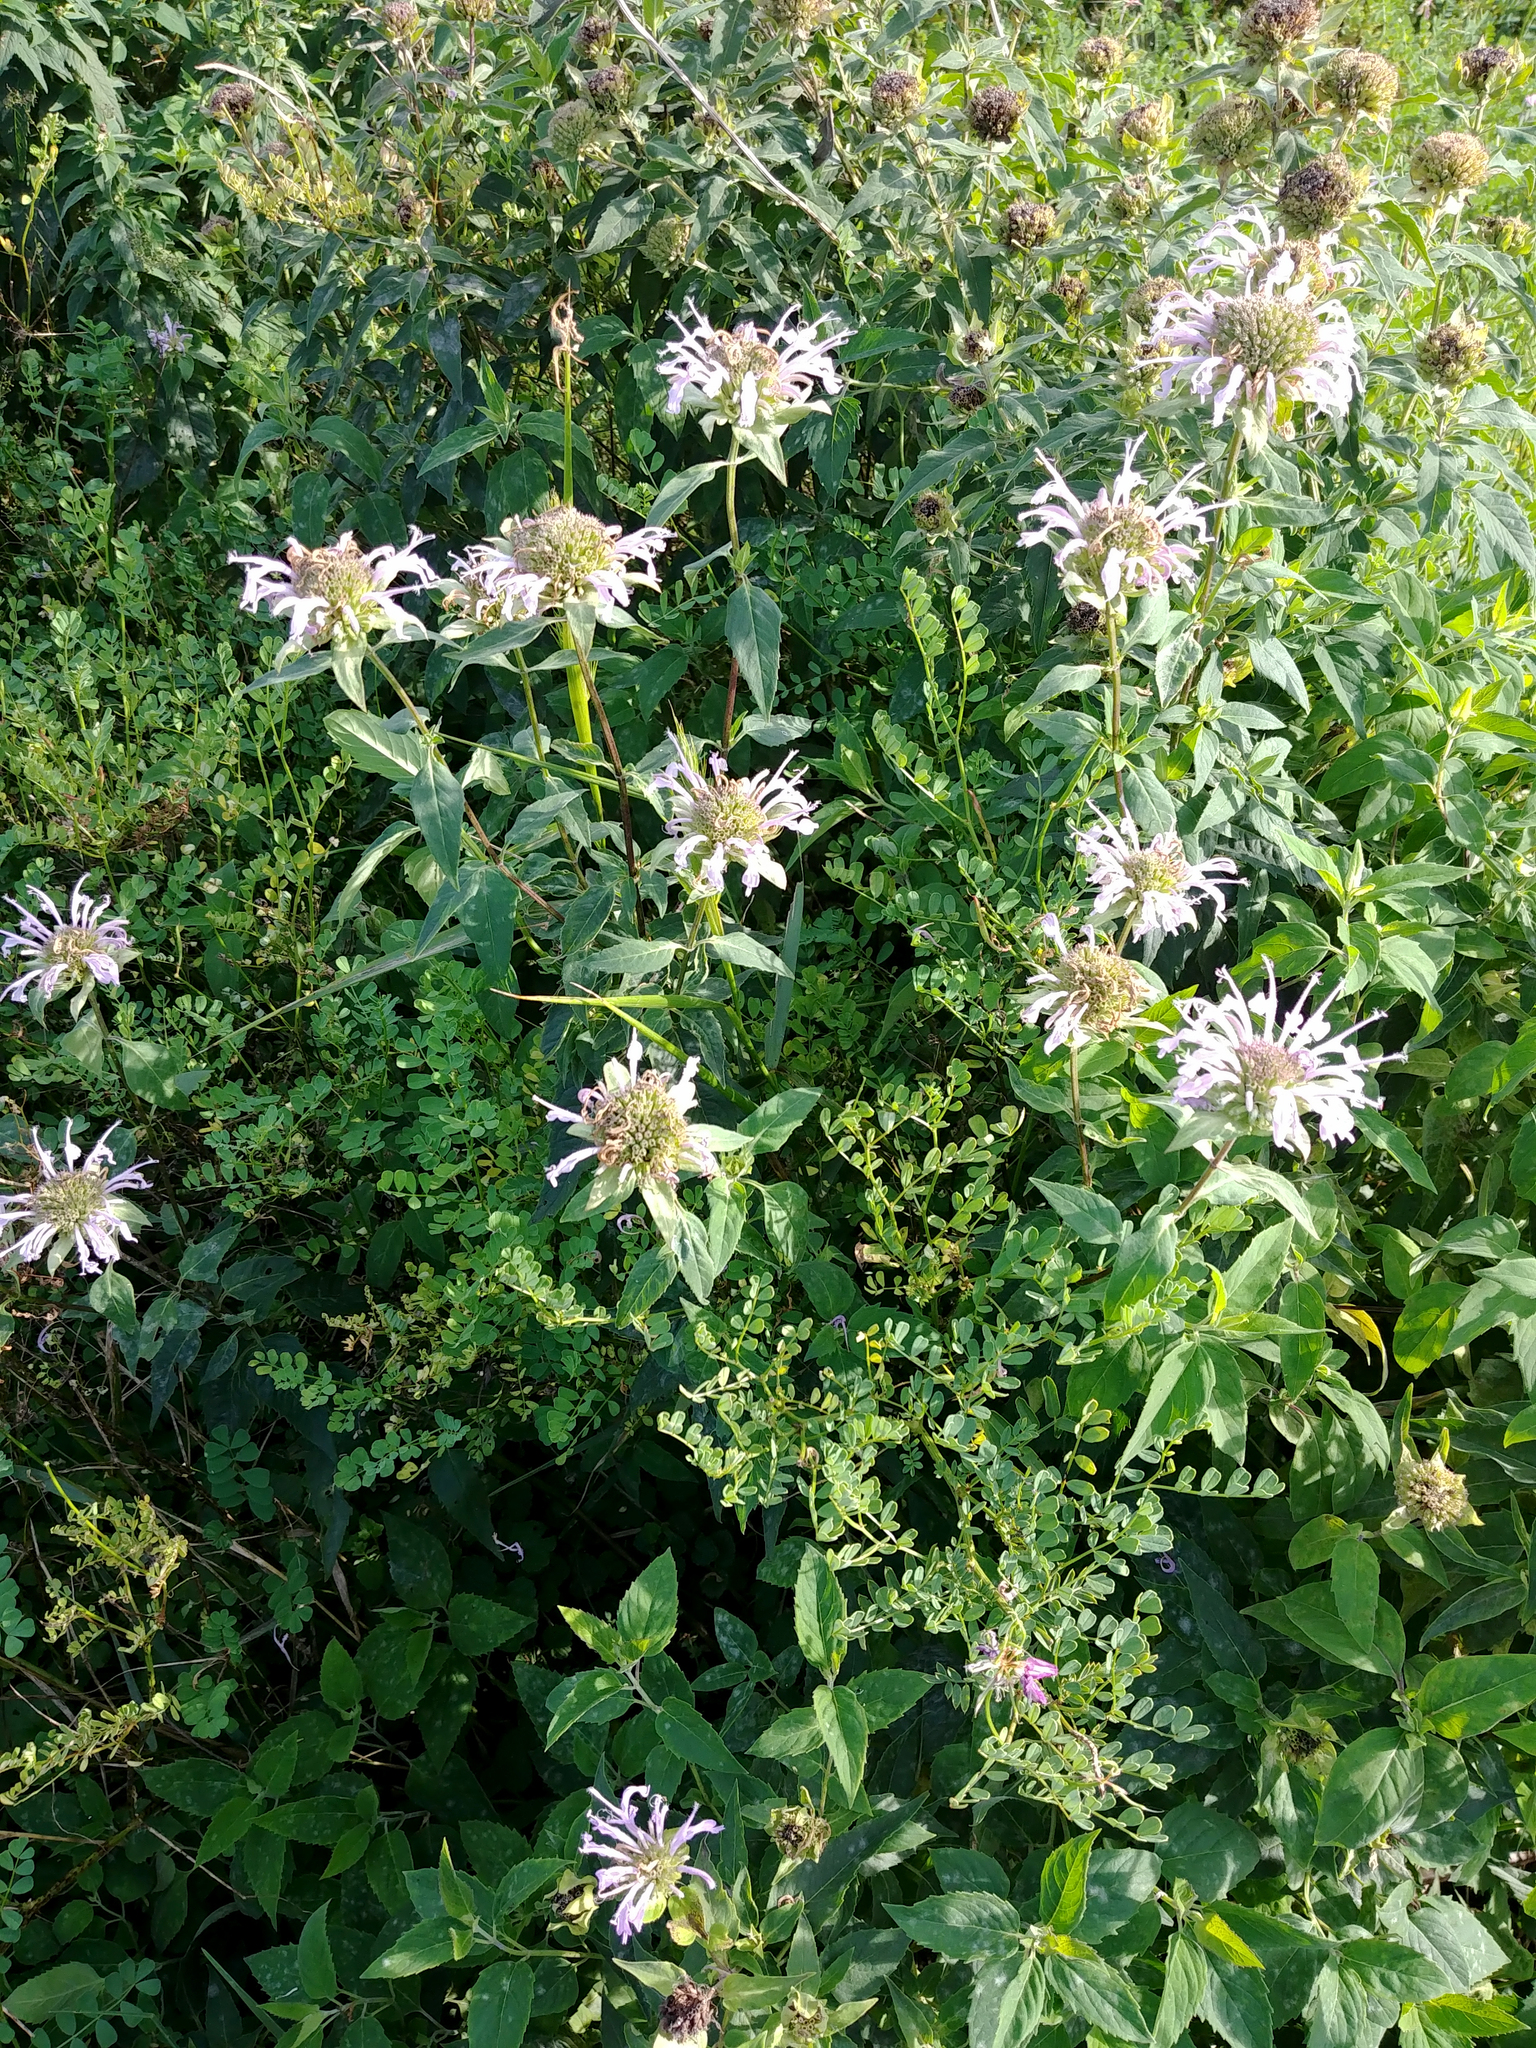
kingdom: Plantae
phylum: Tracheophyta
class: Magnoliopsida
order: Lamiales
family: Lamiaceae
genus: Monarda
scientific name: Monarda fistulosa
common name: Purple beebalm
